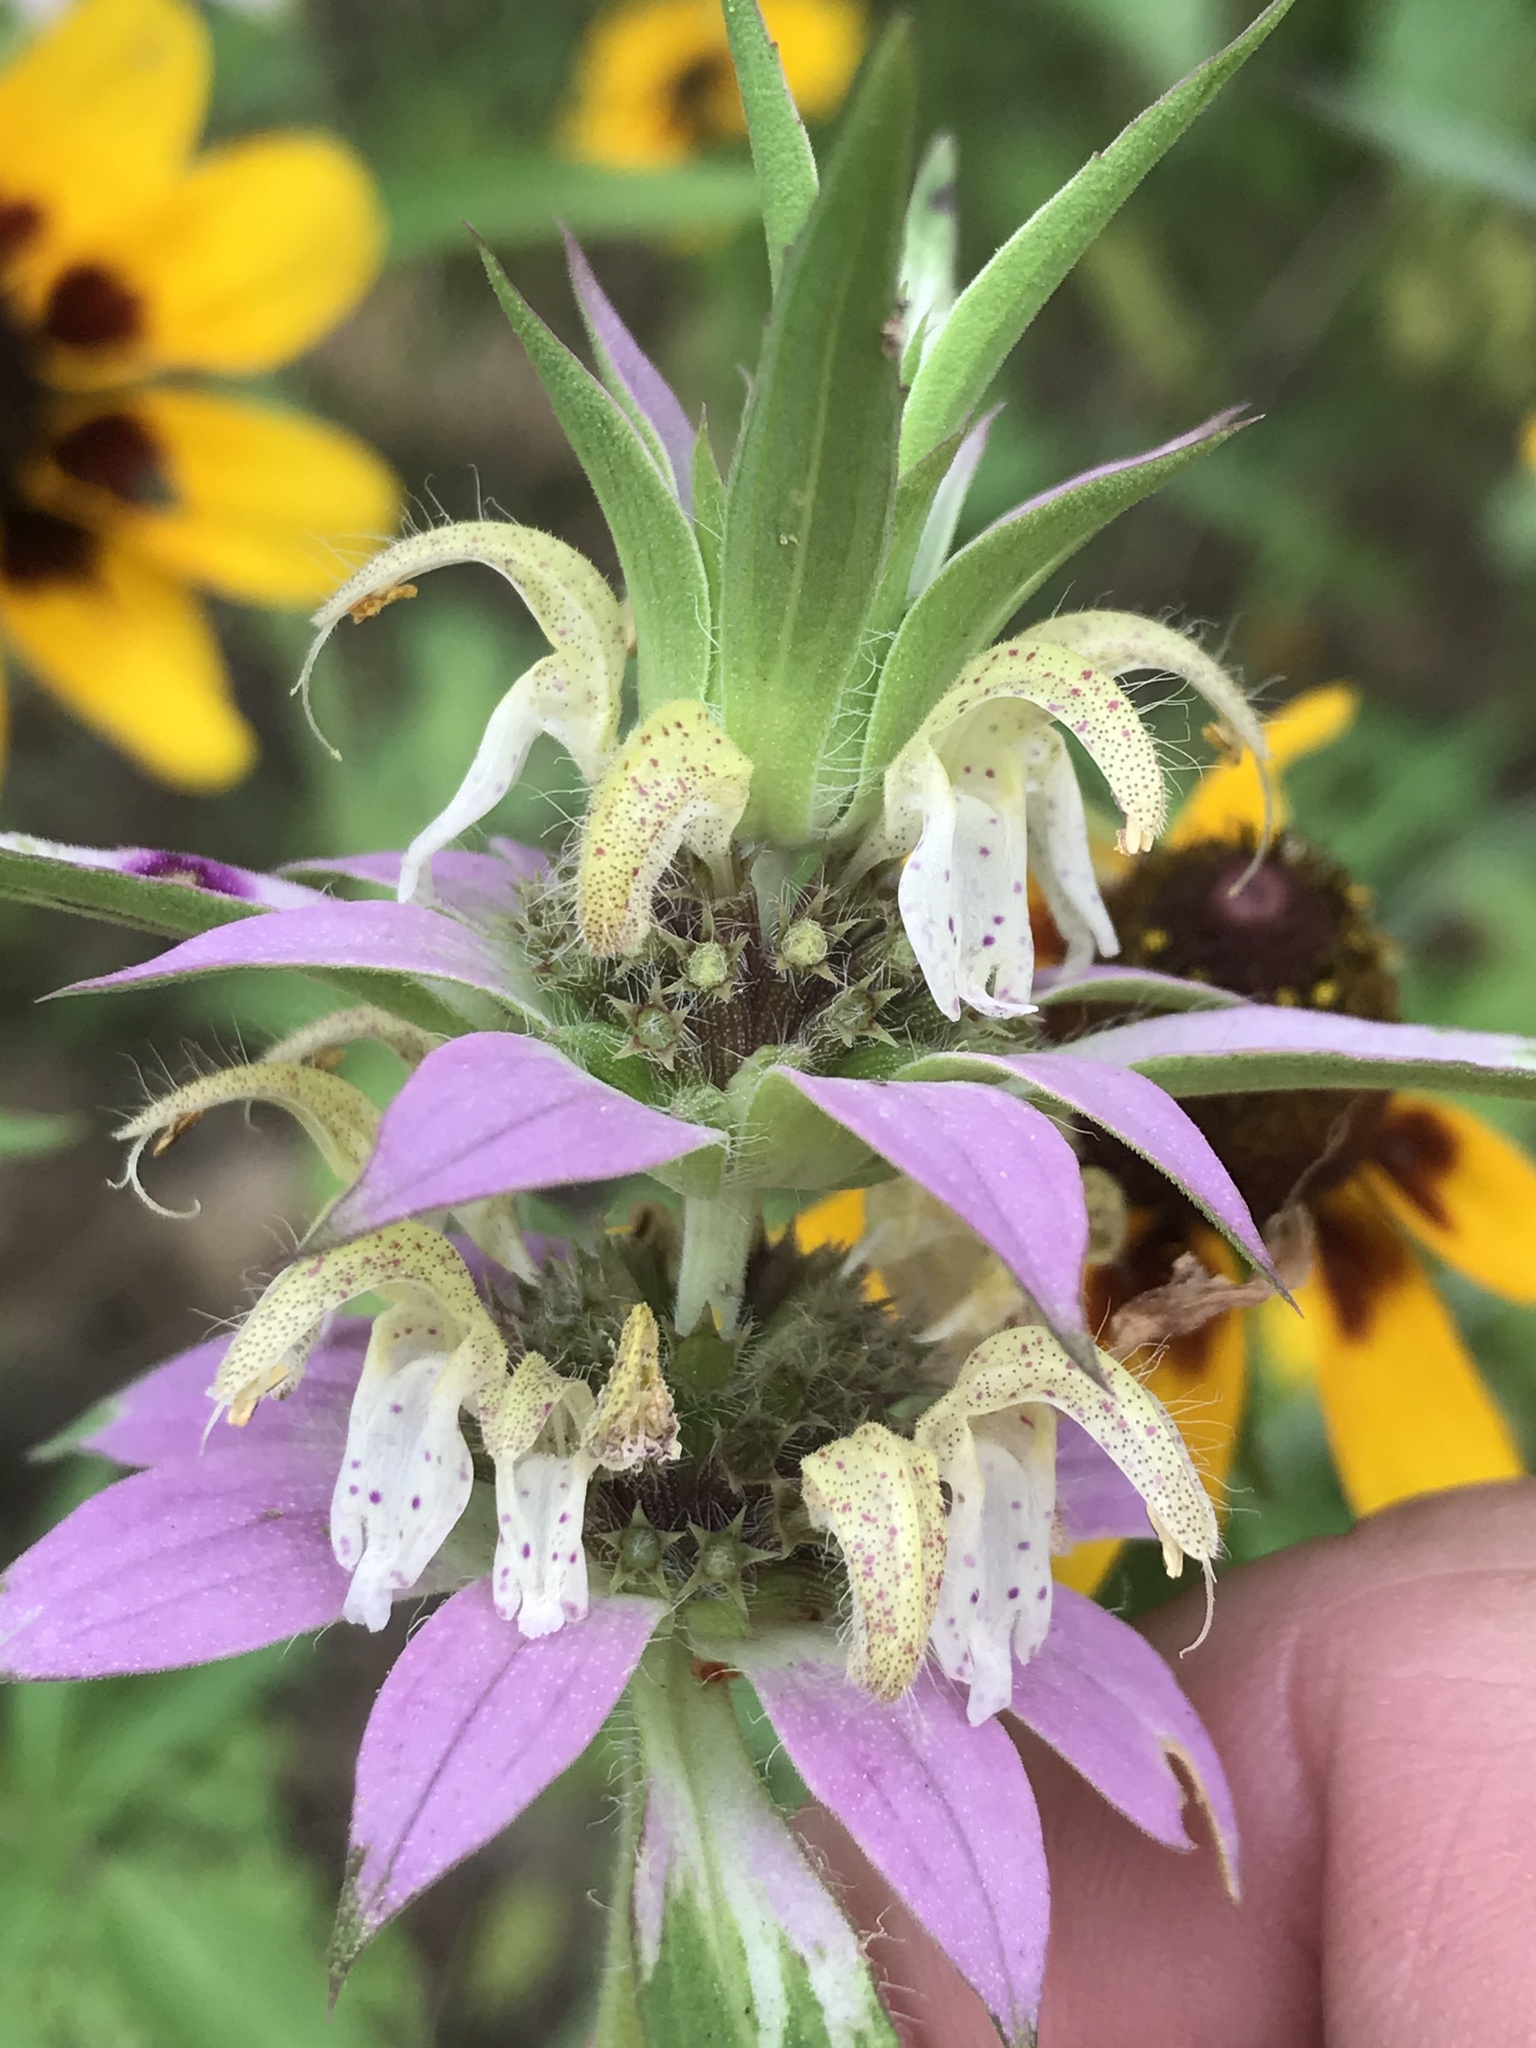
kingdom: Plantae
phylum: Tracheophyta
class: Magnoliopsida
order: Lamiales
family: Lamiaceae
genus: Monarda
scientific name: Monarda punctata
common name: Dotted monarda
